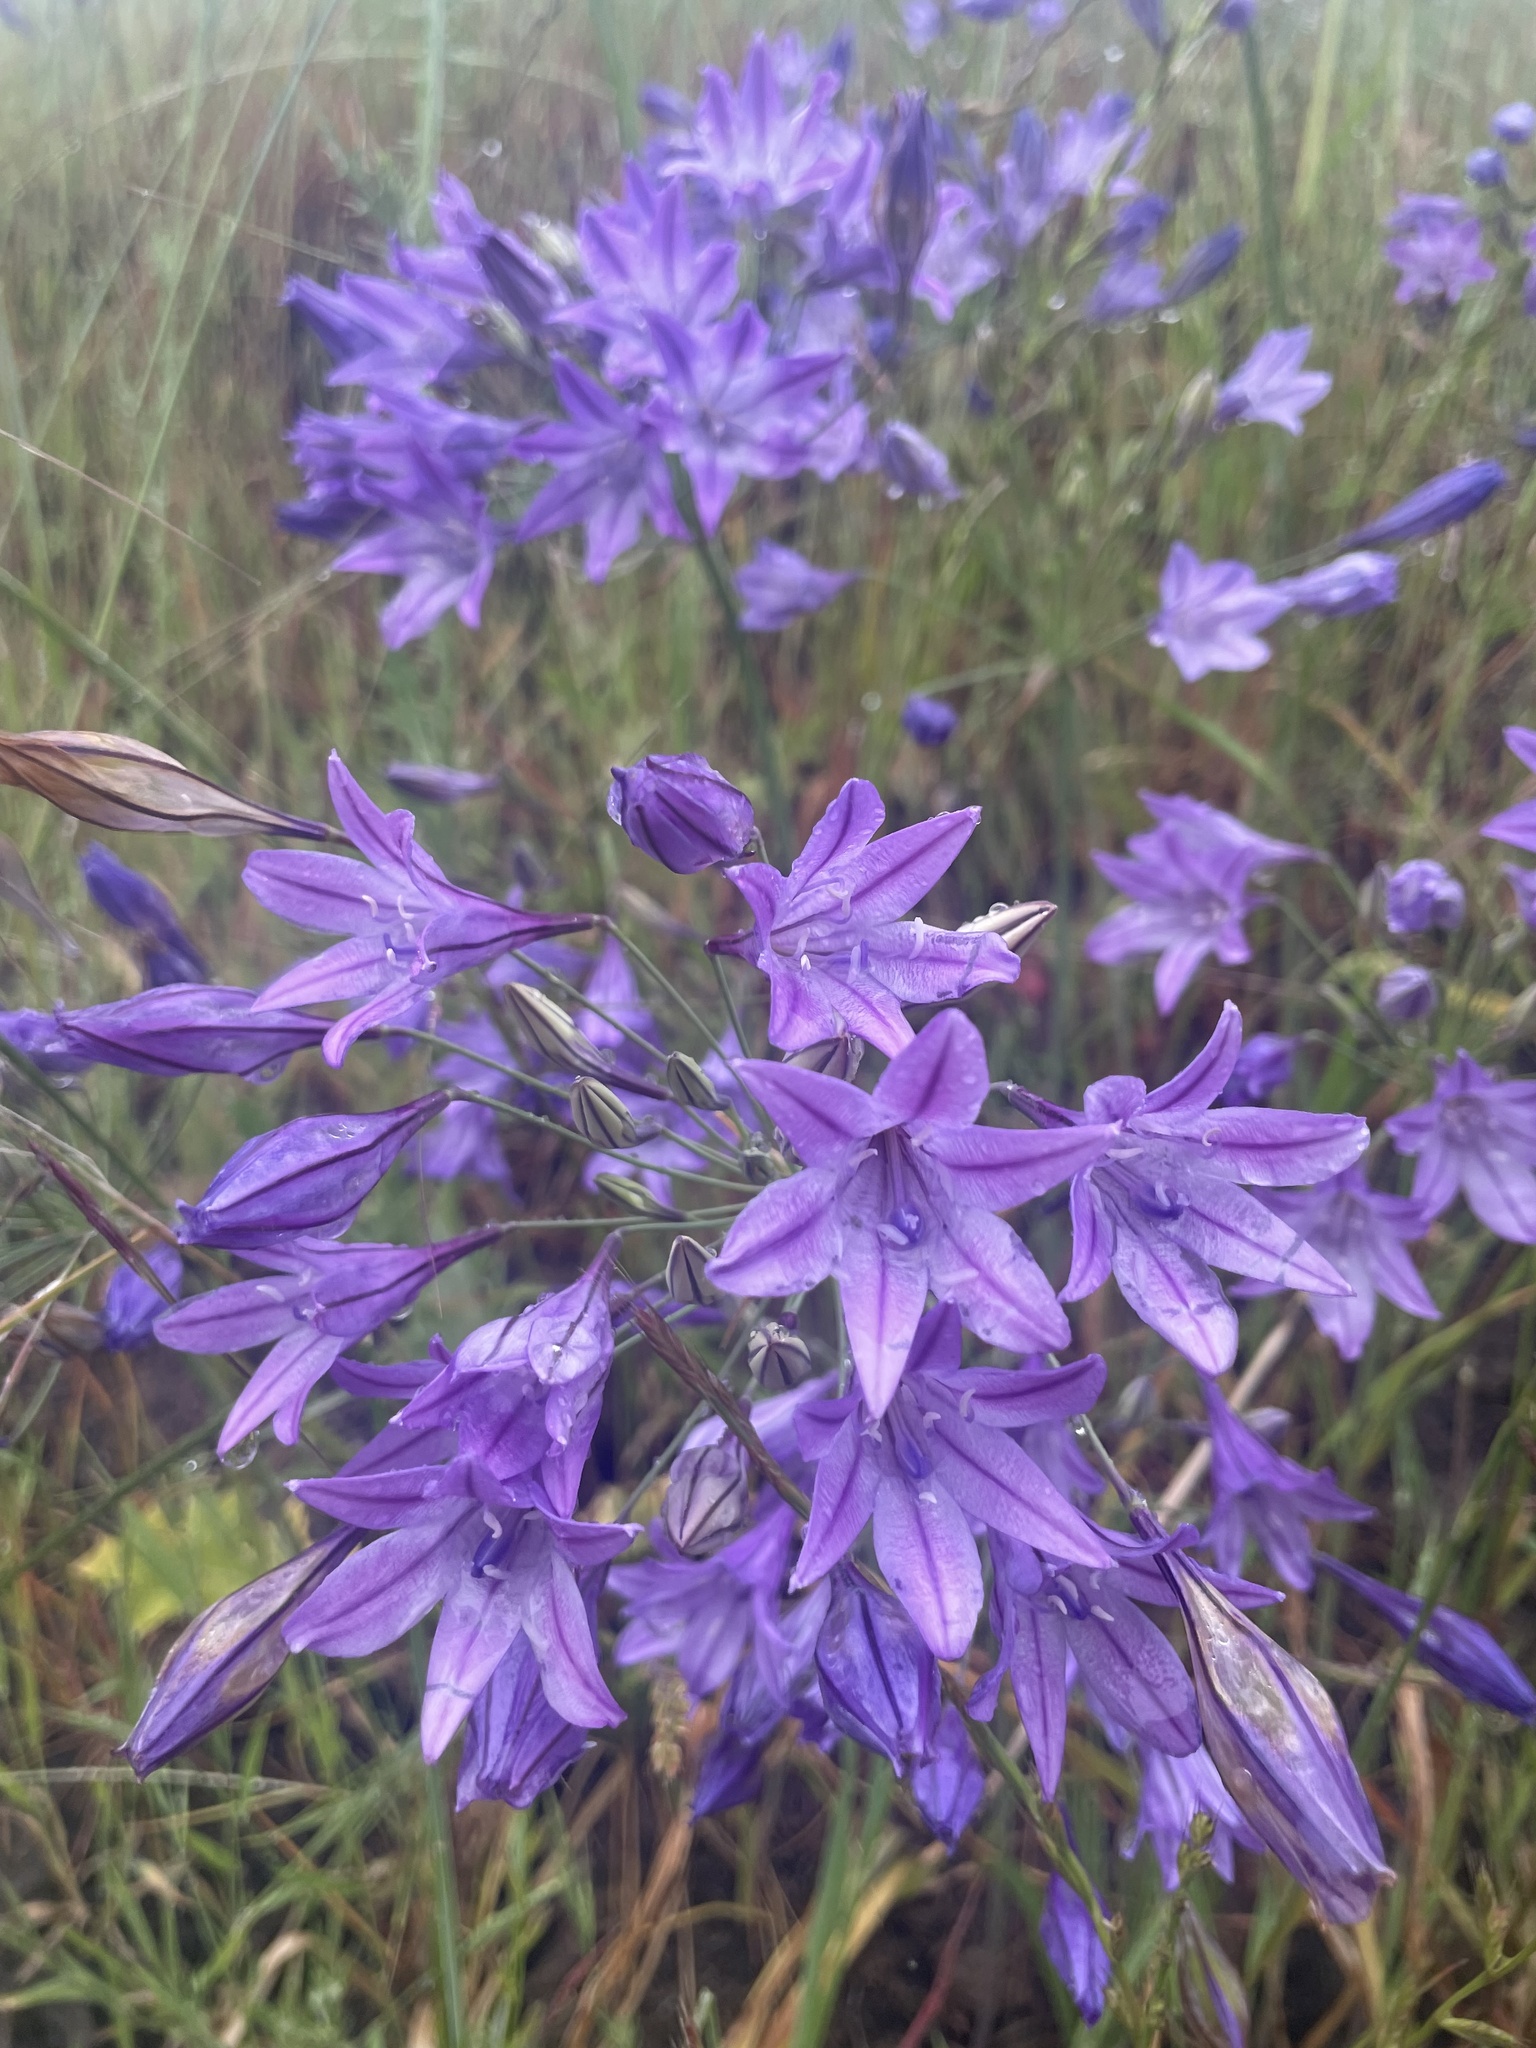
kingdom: Plantae
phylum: Tracheophyta
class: Liliopsida
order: Asparagales
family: Asparagaceae
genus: Triteleia
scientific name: Triteleia laxa
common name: Triplet-lily
